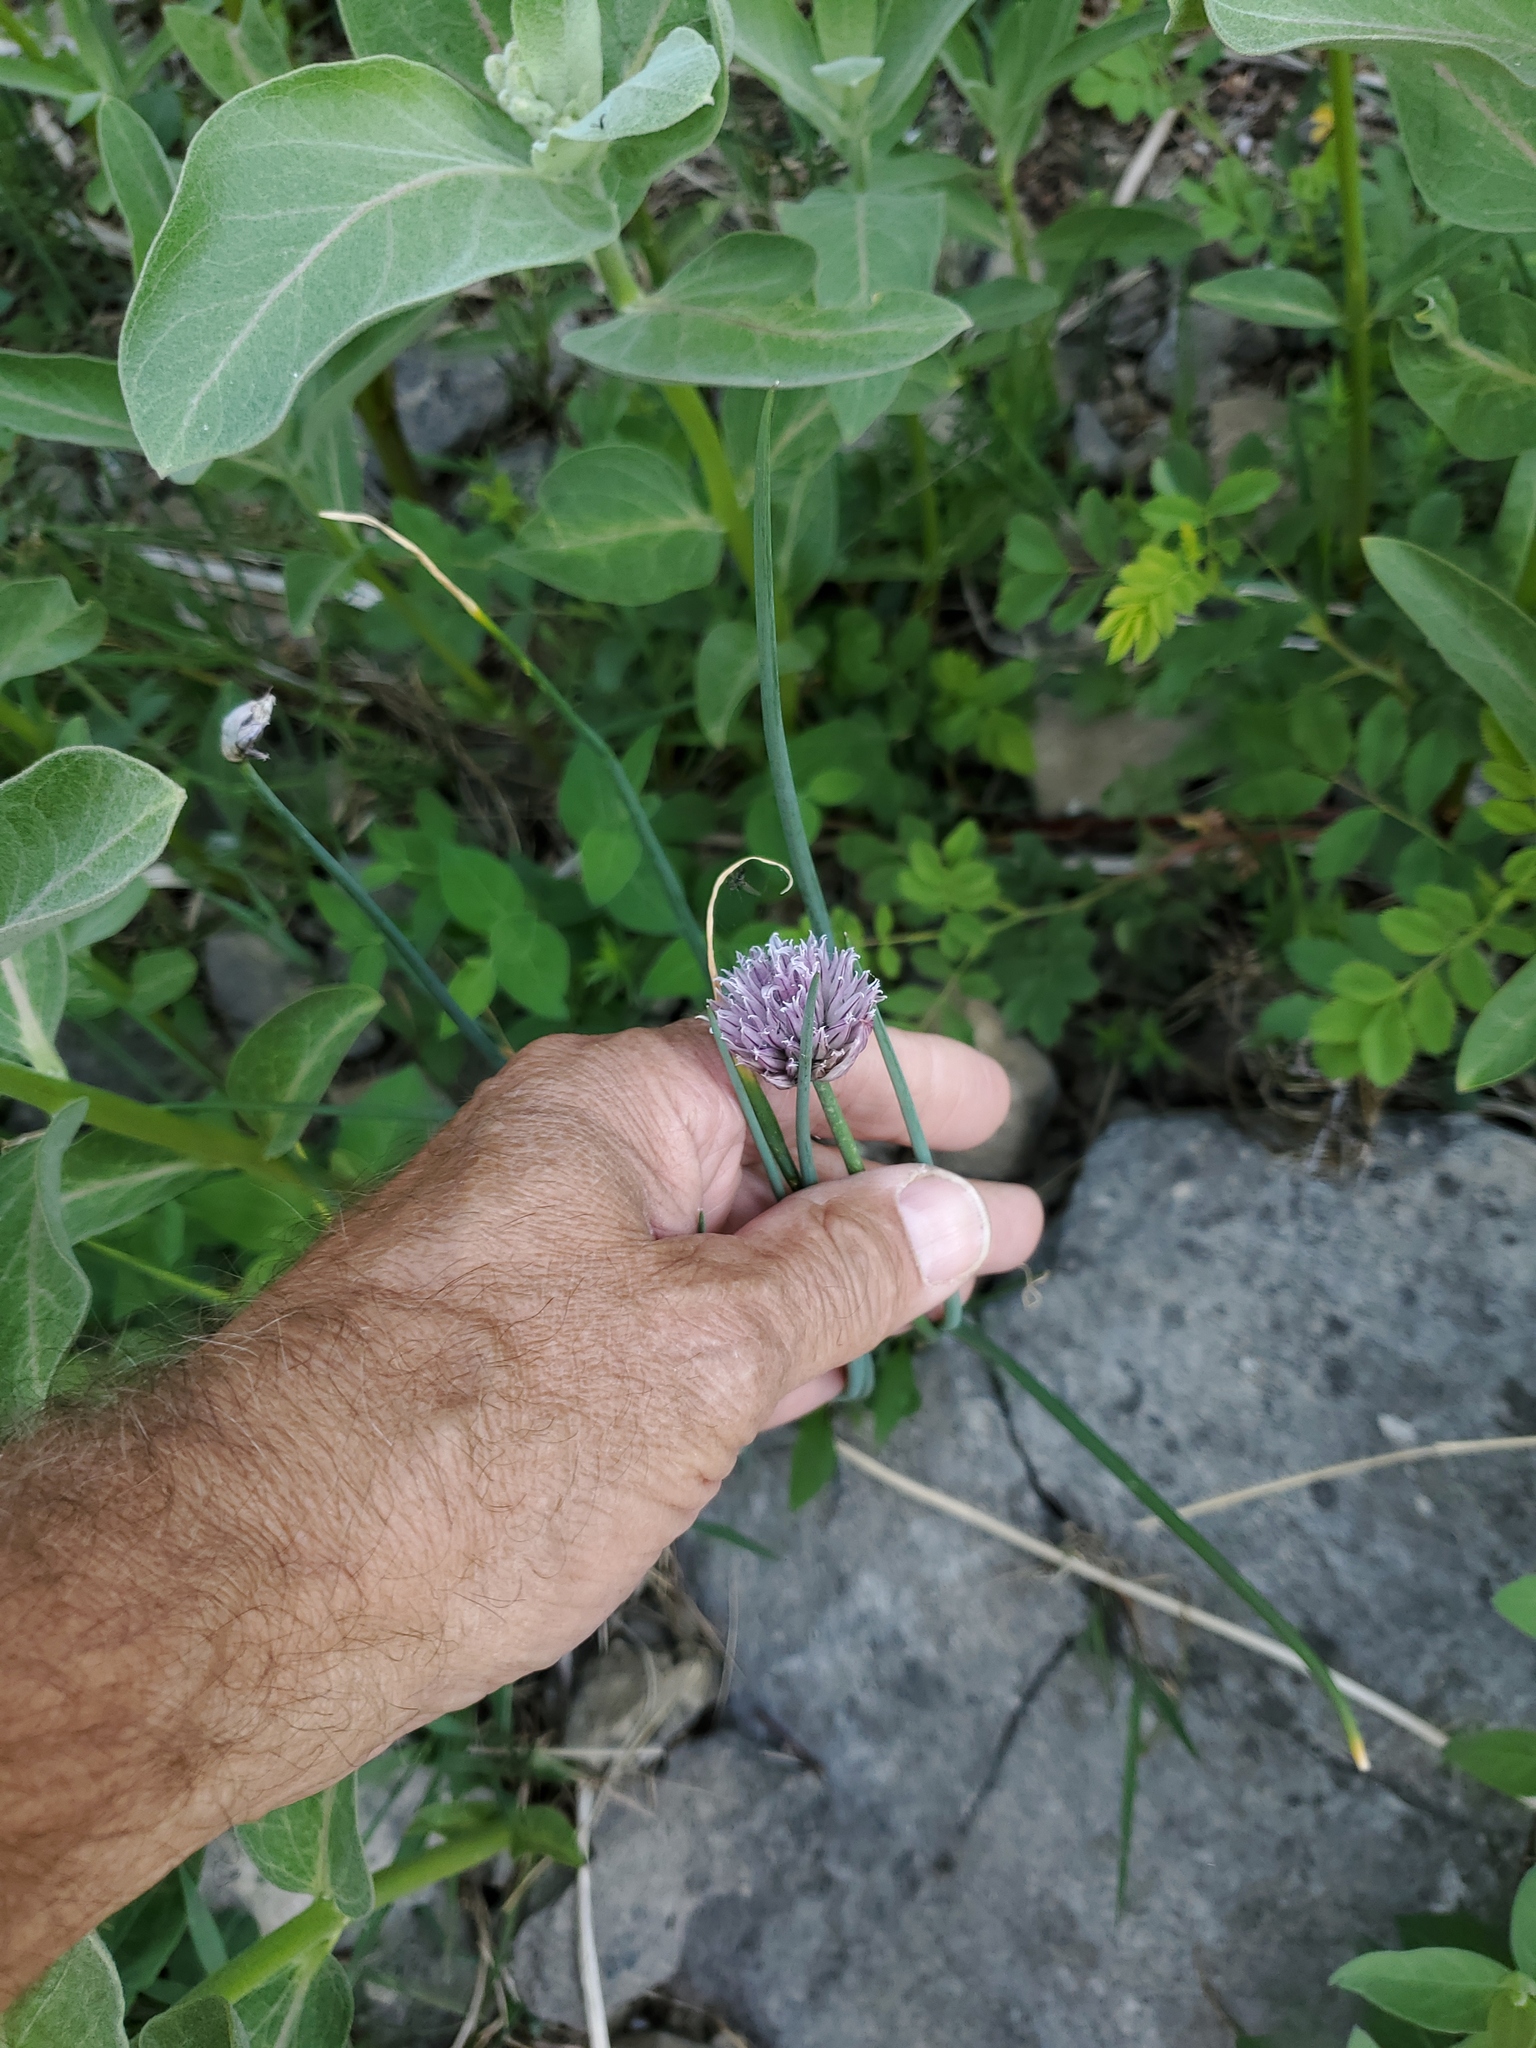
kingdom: Plantae
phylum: Tracheophyta
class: Liliopsida
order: Asparagales
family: Amaryllidaceae
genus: Allium
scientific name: Allium schoenoprasum
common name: Chives
